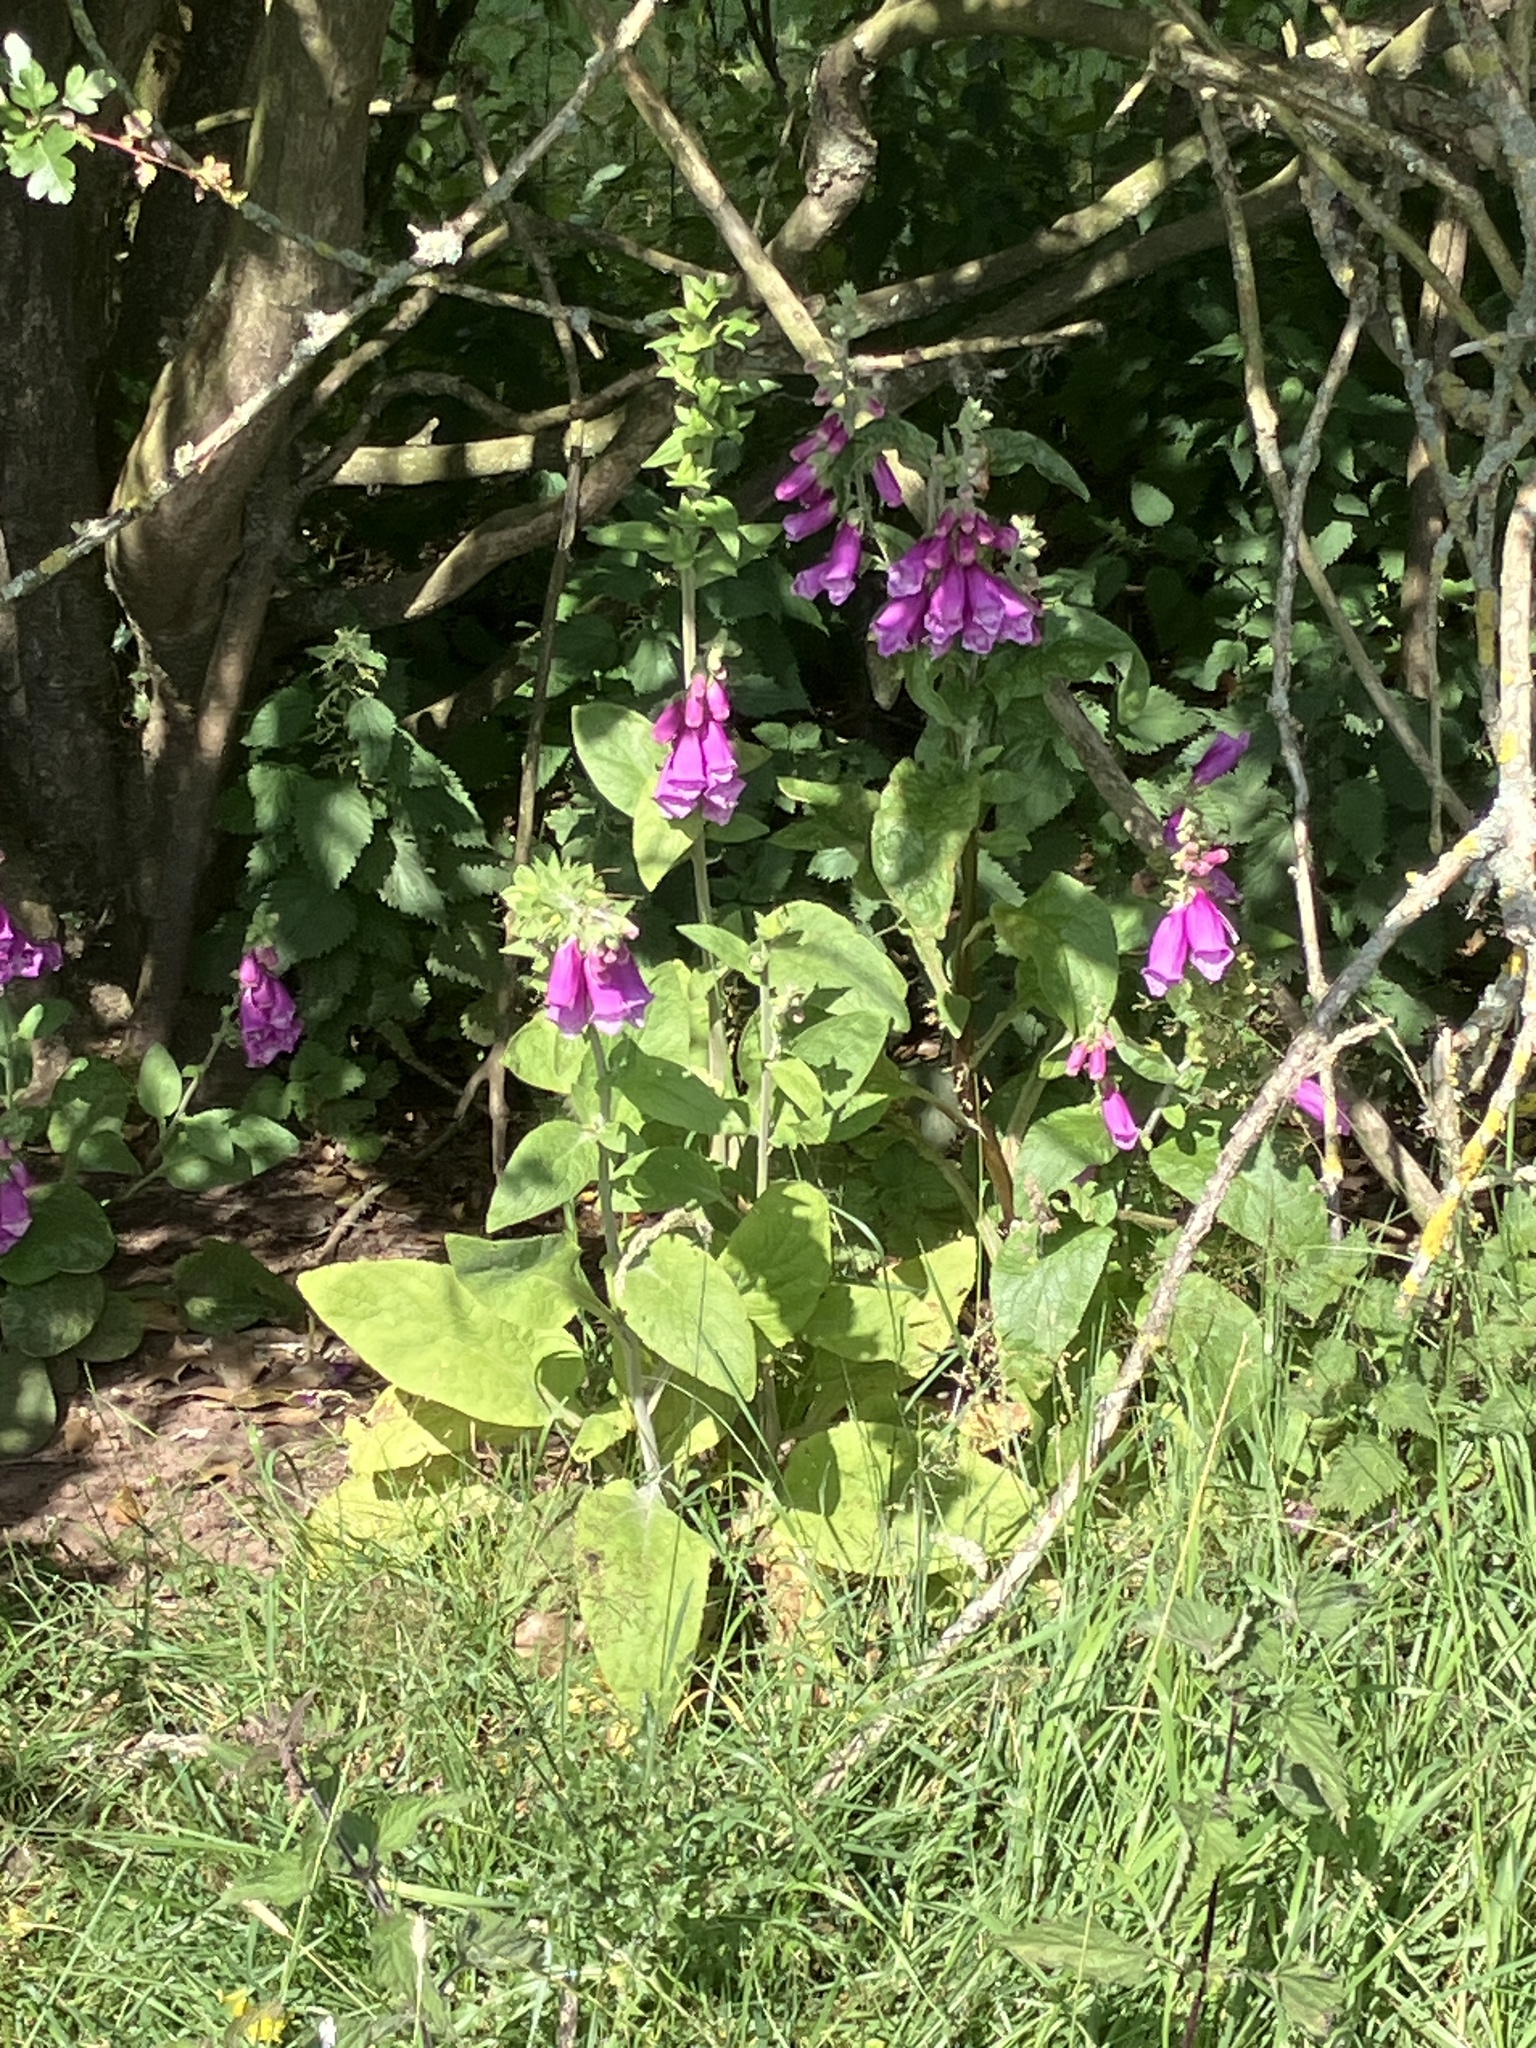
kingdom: Plantae
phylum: Tracheophyta
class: Magnoliopsida
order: Lamiales
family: Plantaginaceae
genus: Digitalis
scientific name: Digitalis purpurea
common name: Foxglove
